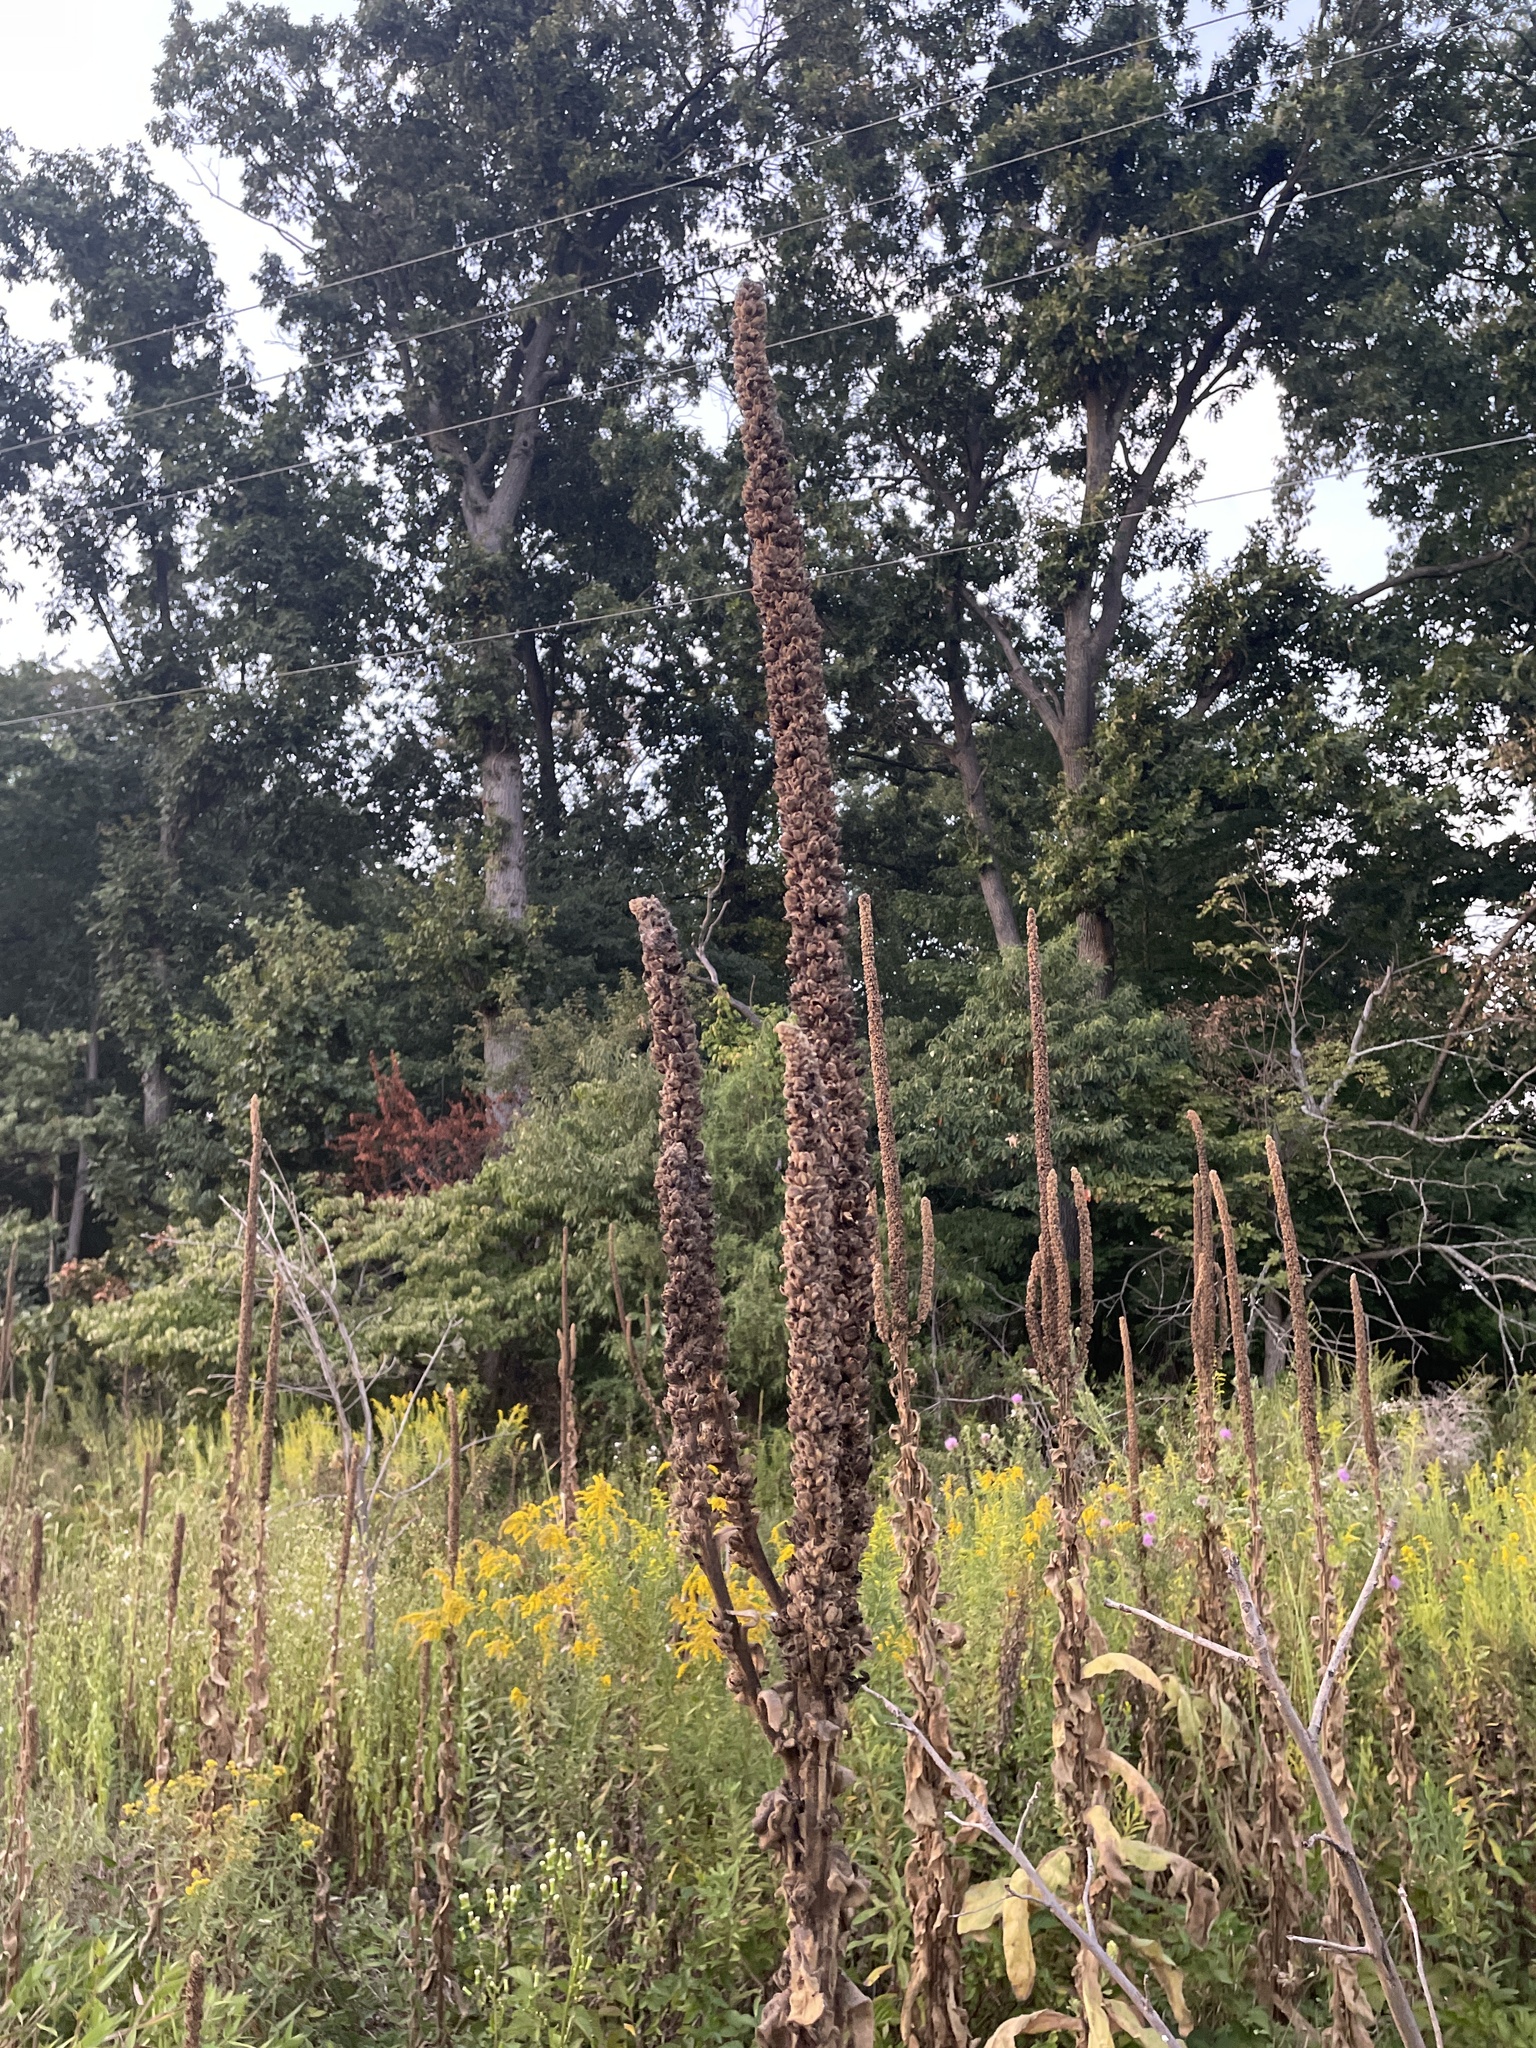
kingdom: Plantae
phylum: Tracheophyta
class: Magnoliopsida
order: Lamiales
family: Scrophulariaceae
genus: Verbascum
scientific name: Verbascum thapsus
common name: Common mullein
